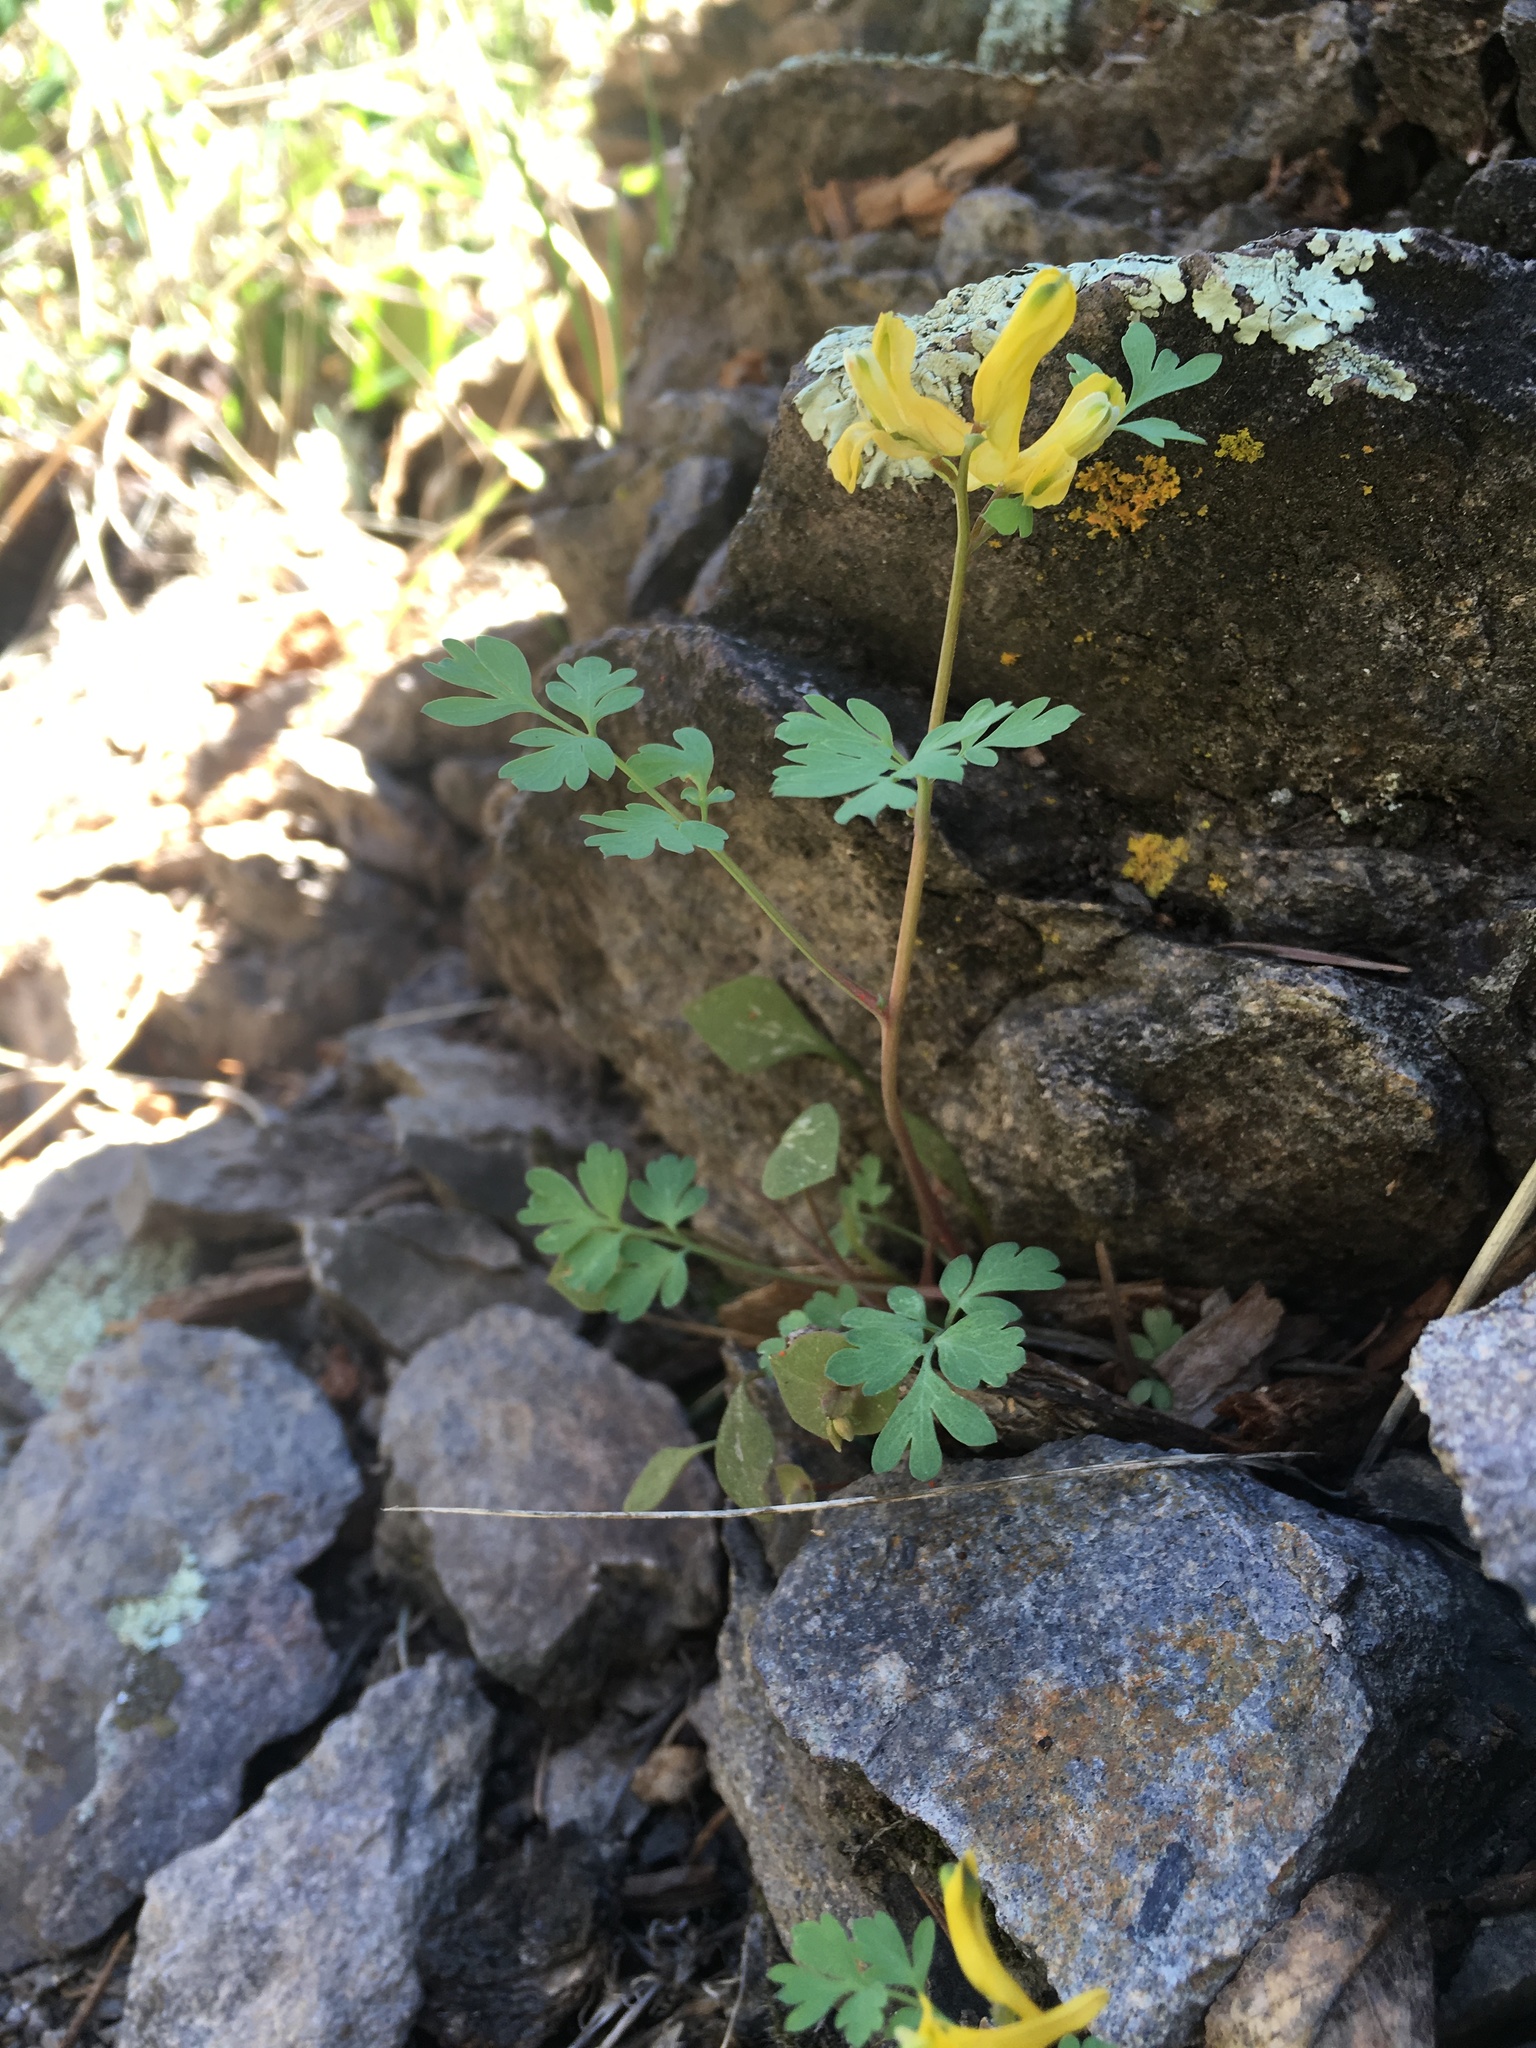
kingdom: Plantae
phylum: Tracheophyta
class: Magnoliopsida
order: Ranunculales
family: Papaveraceae
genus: Corydalis
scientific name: Corydalis aurea
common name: Golden corydalis
